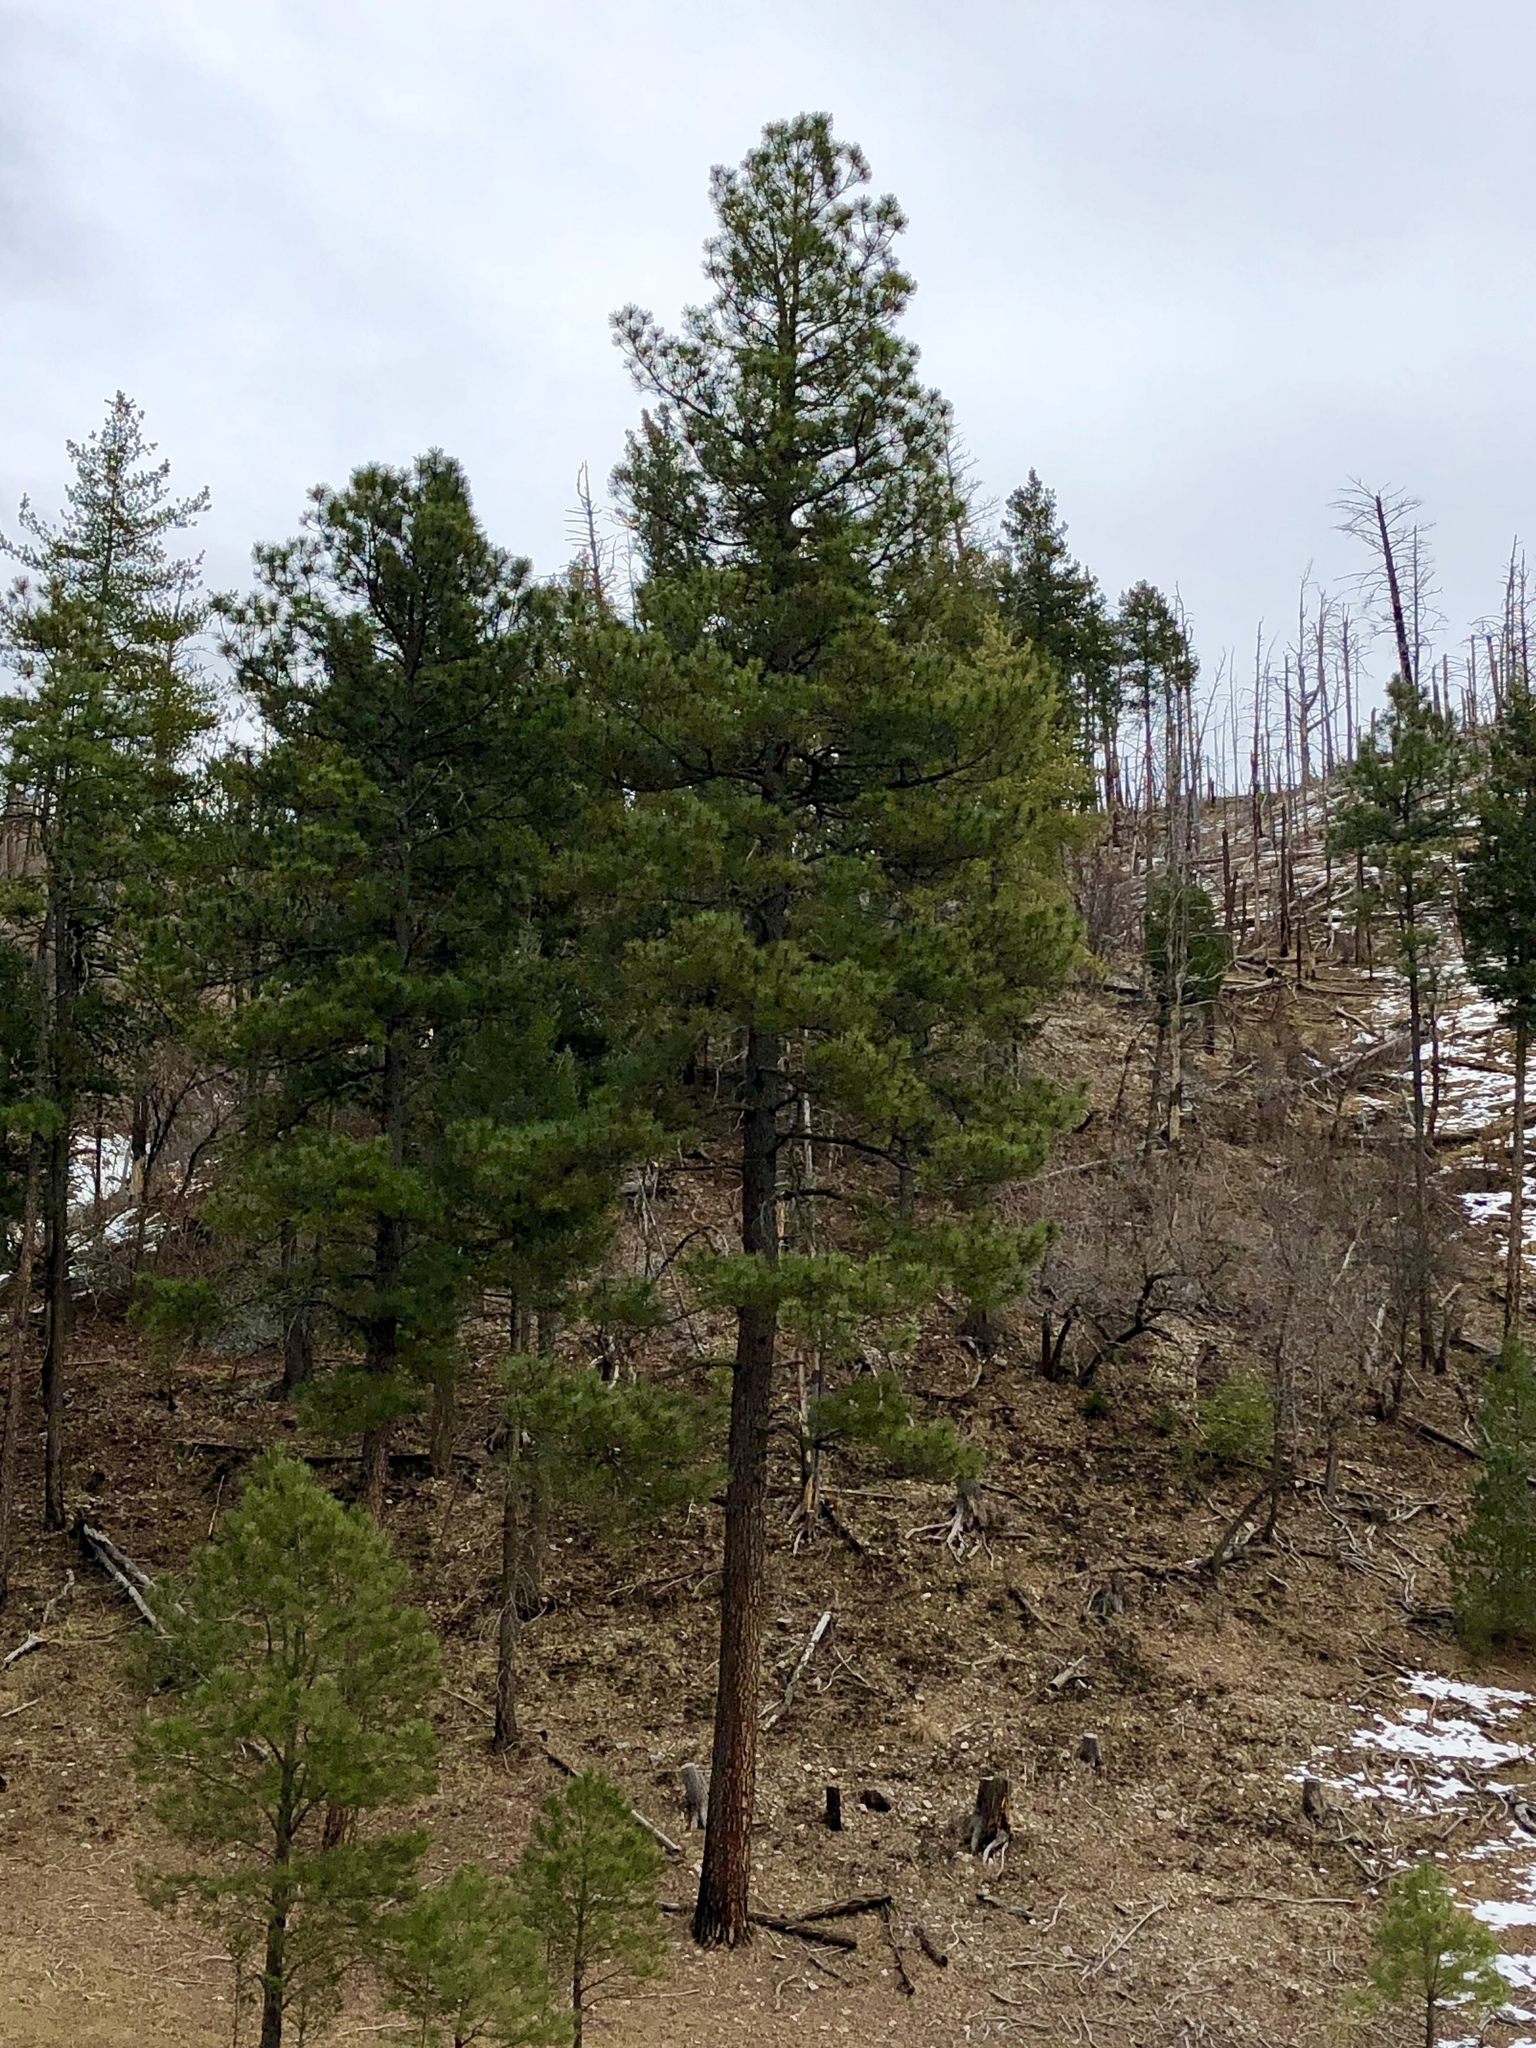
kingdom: Plantae
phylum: Tracheophyta
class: Pinopsida
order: Pinales
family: Pinaceae
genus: Pinus
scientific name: Pinus ponderosa
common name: Western yellow-pine
